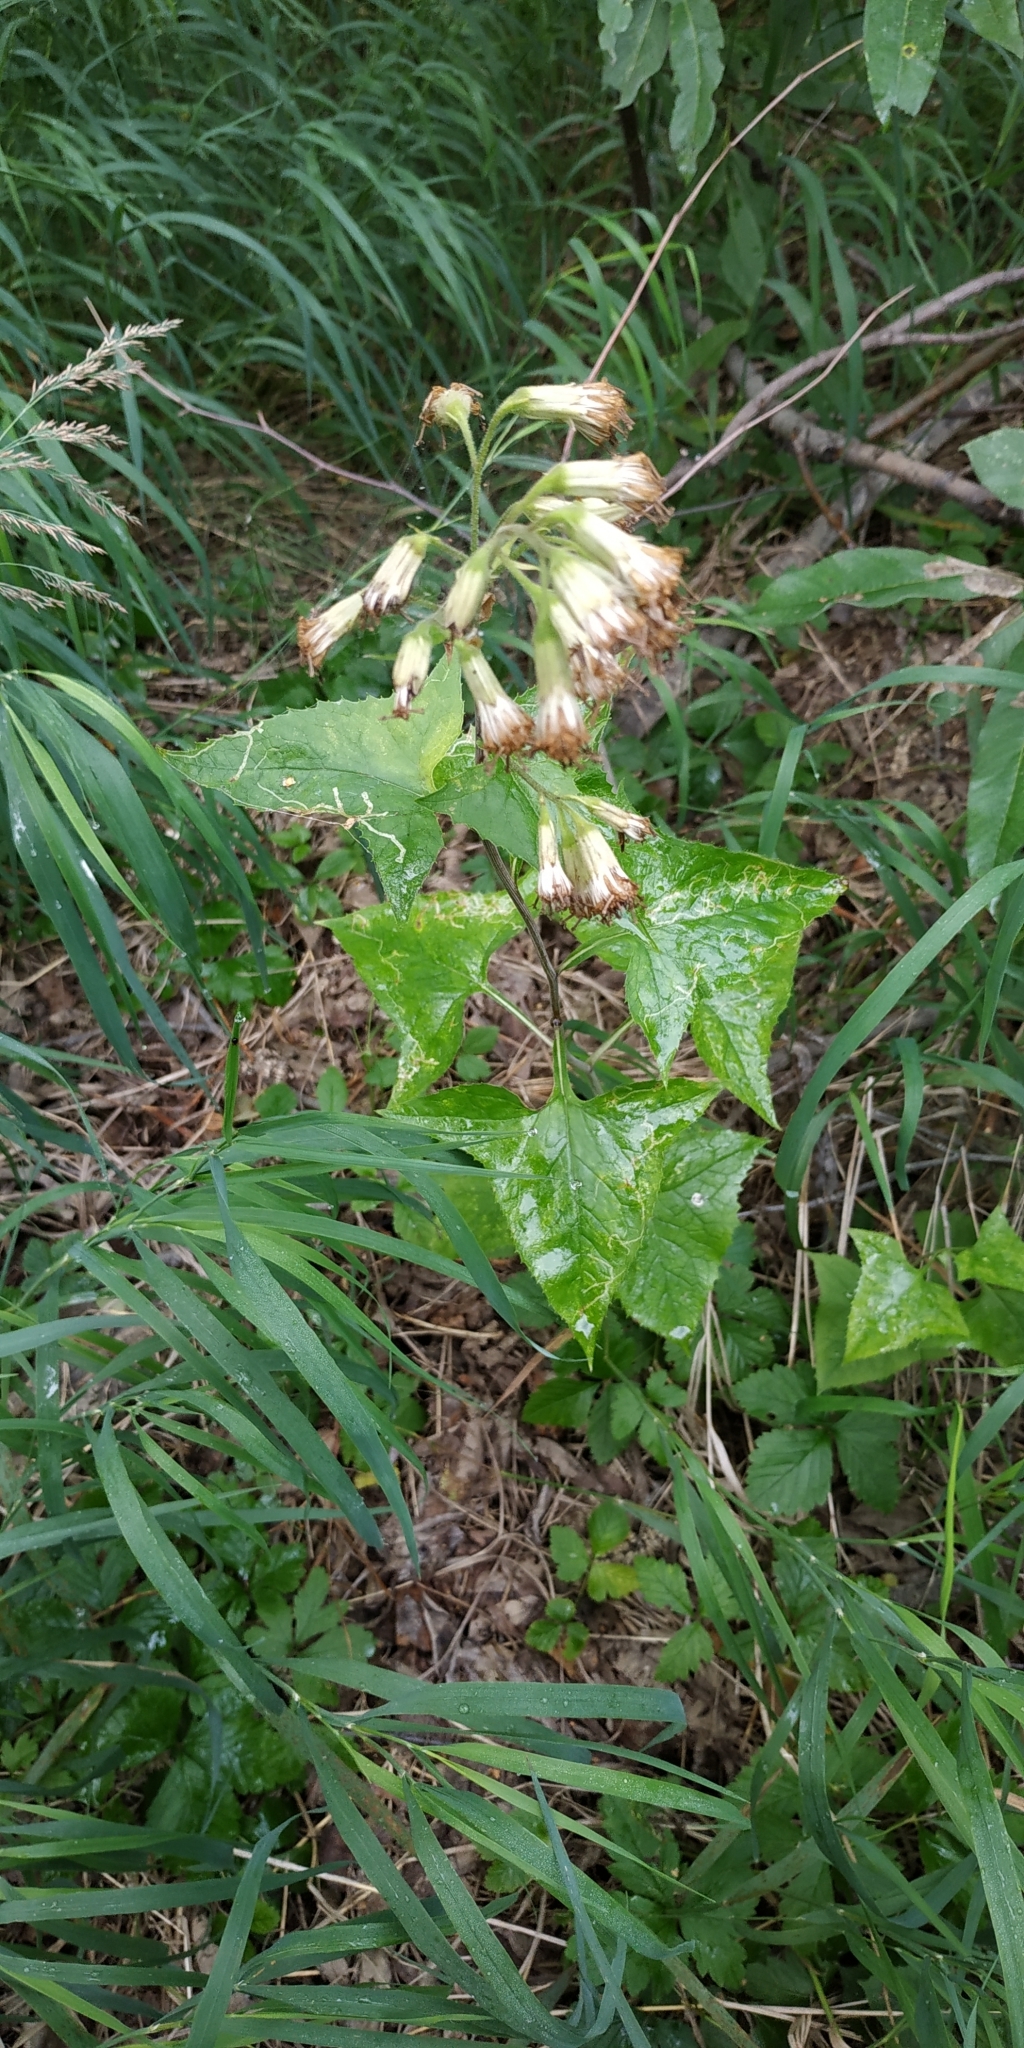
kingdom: Plantae
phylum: Tracheophyta
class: Magnoliopsida
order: Asterales
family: Asteraceae
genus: Parasenecio
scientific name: Parasenecio hastatus
